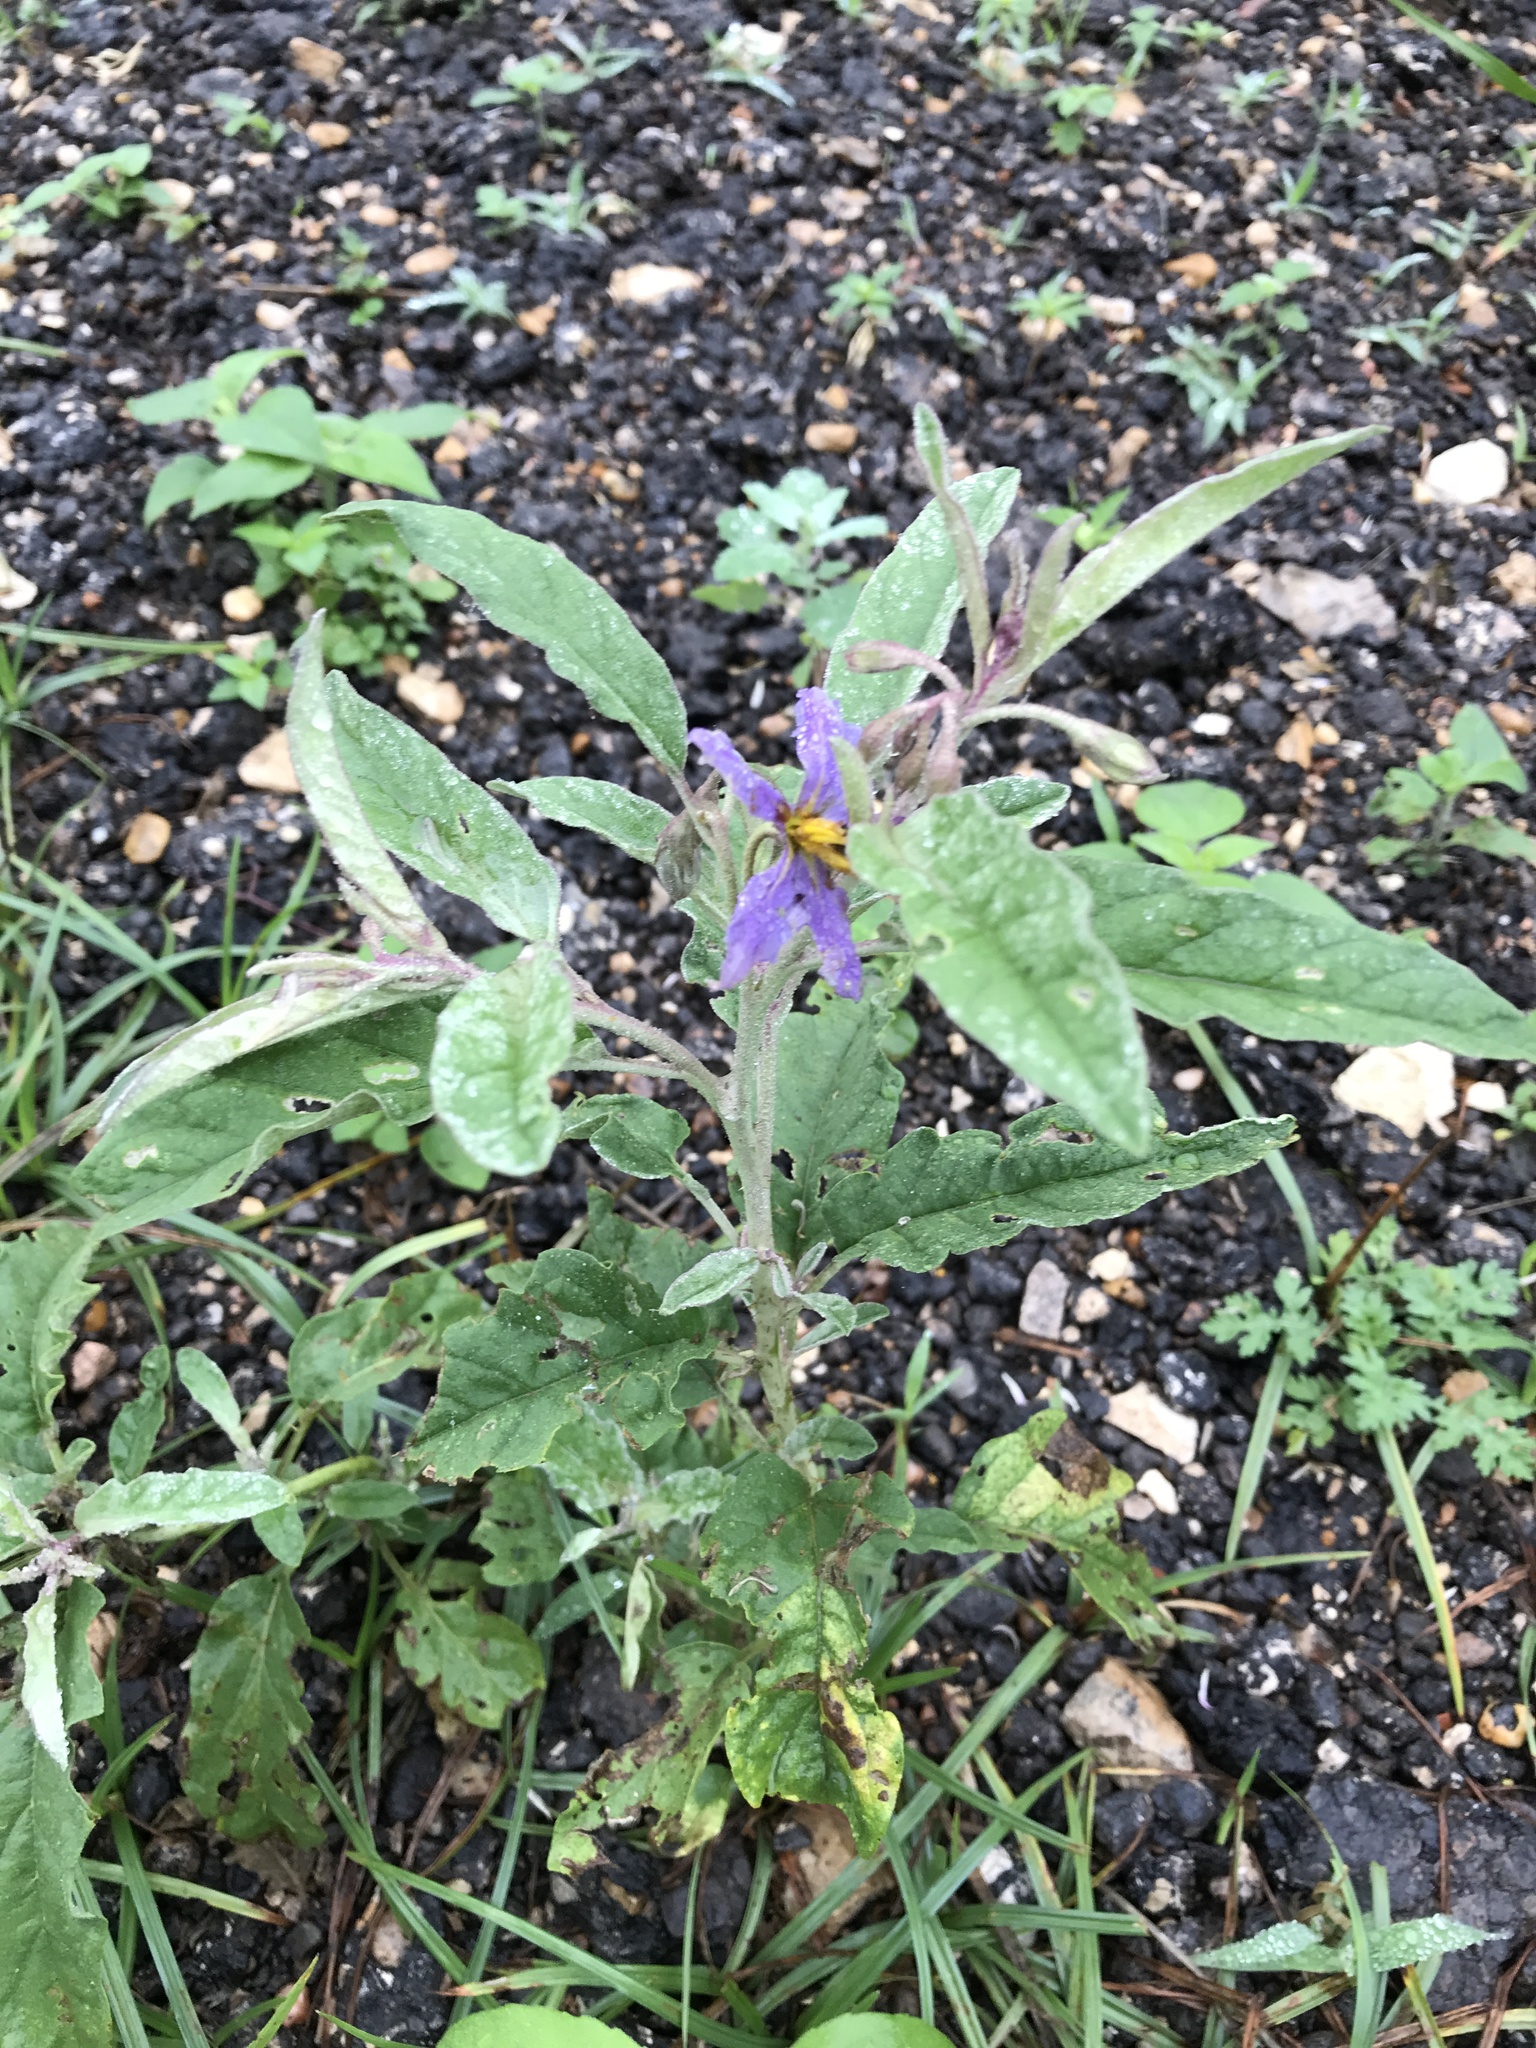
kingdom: Plantae
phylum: Tracheophyta
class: Magnoliopsida
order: Solanales
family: Solanaceae
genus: Solanum
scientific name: Solanum elaeagnifolium
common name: Silverleaf nightshade
